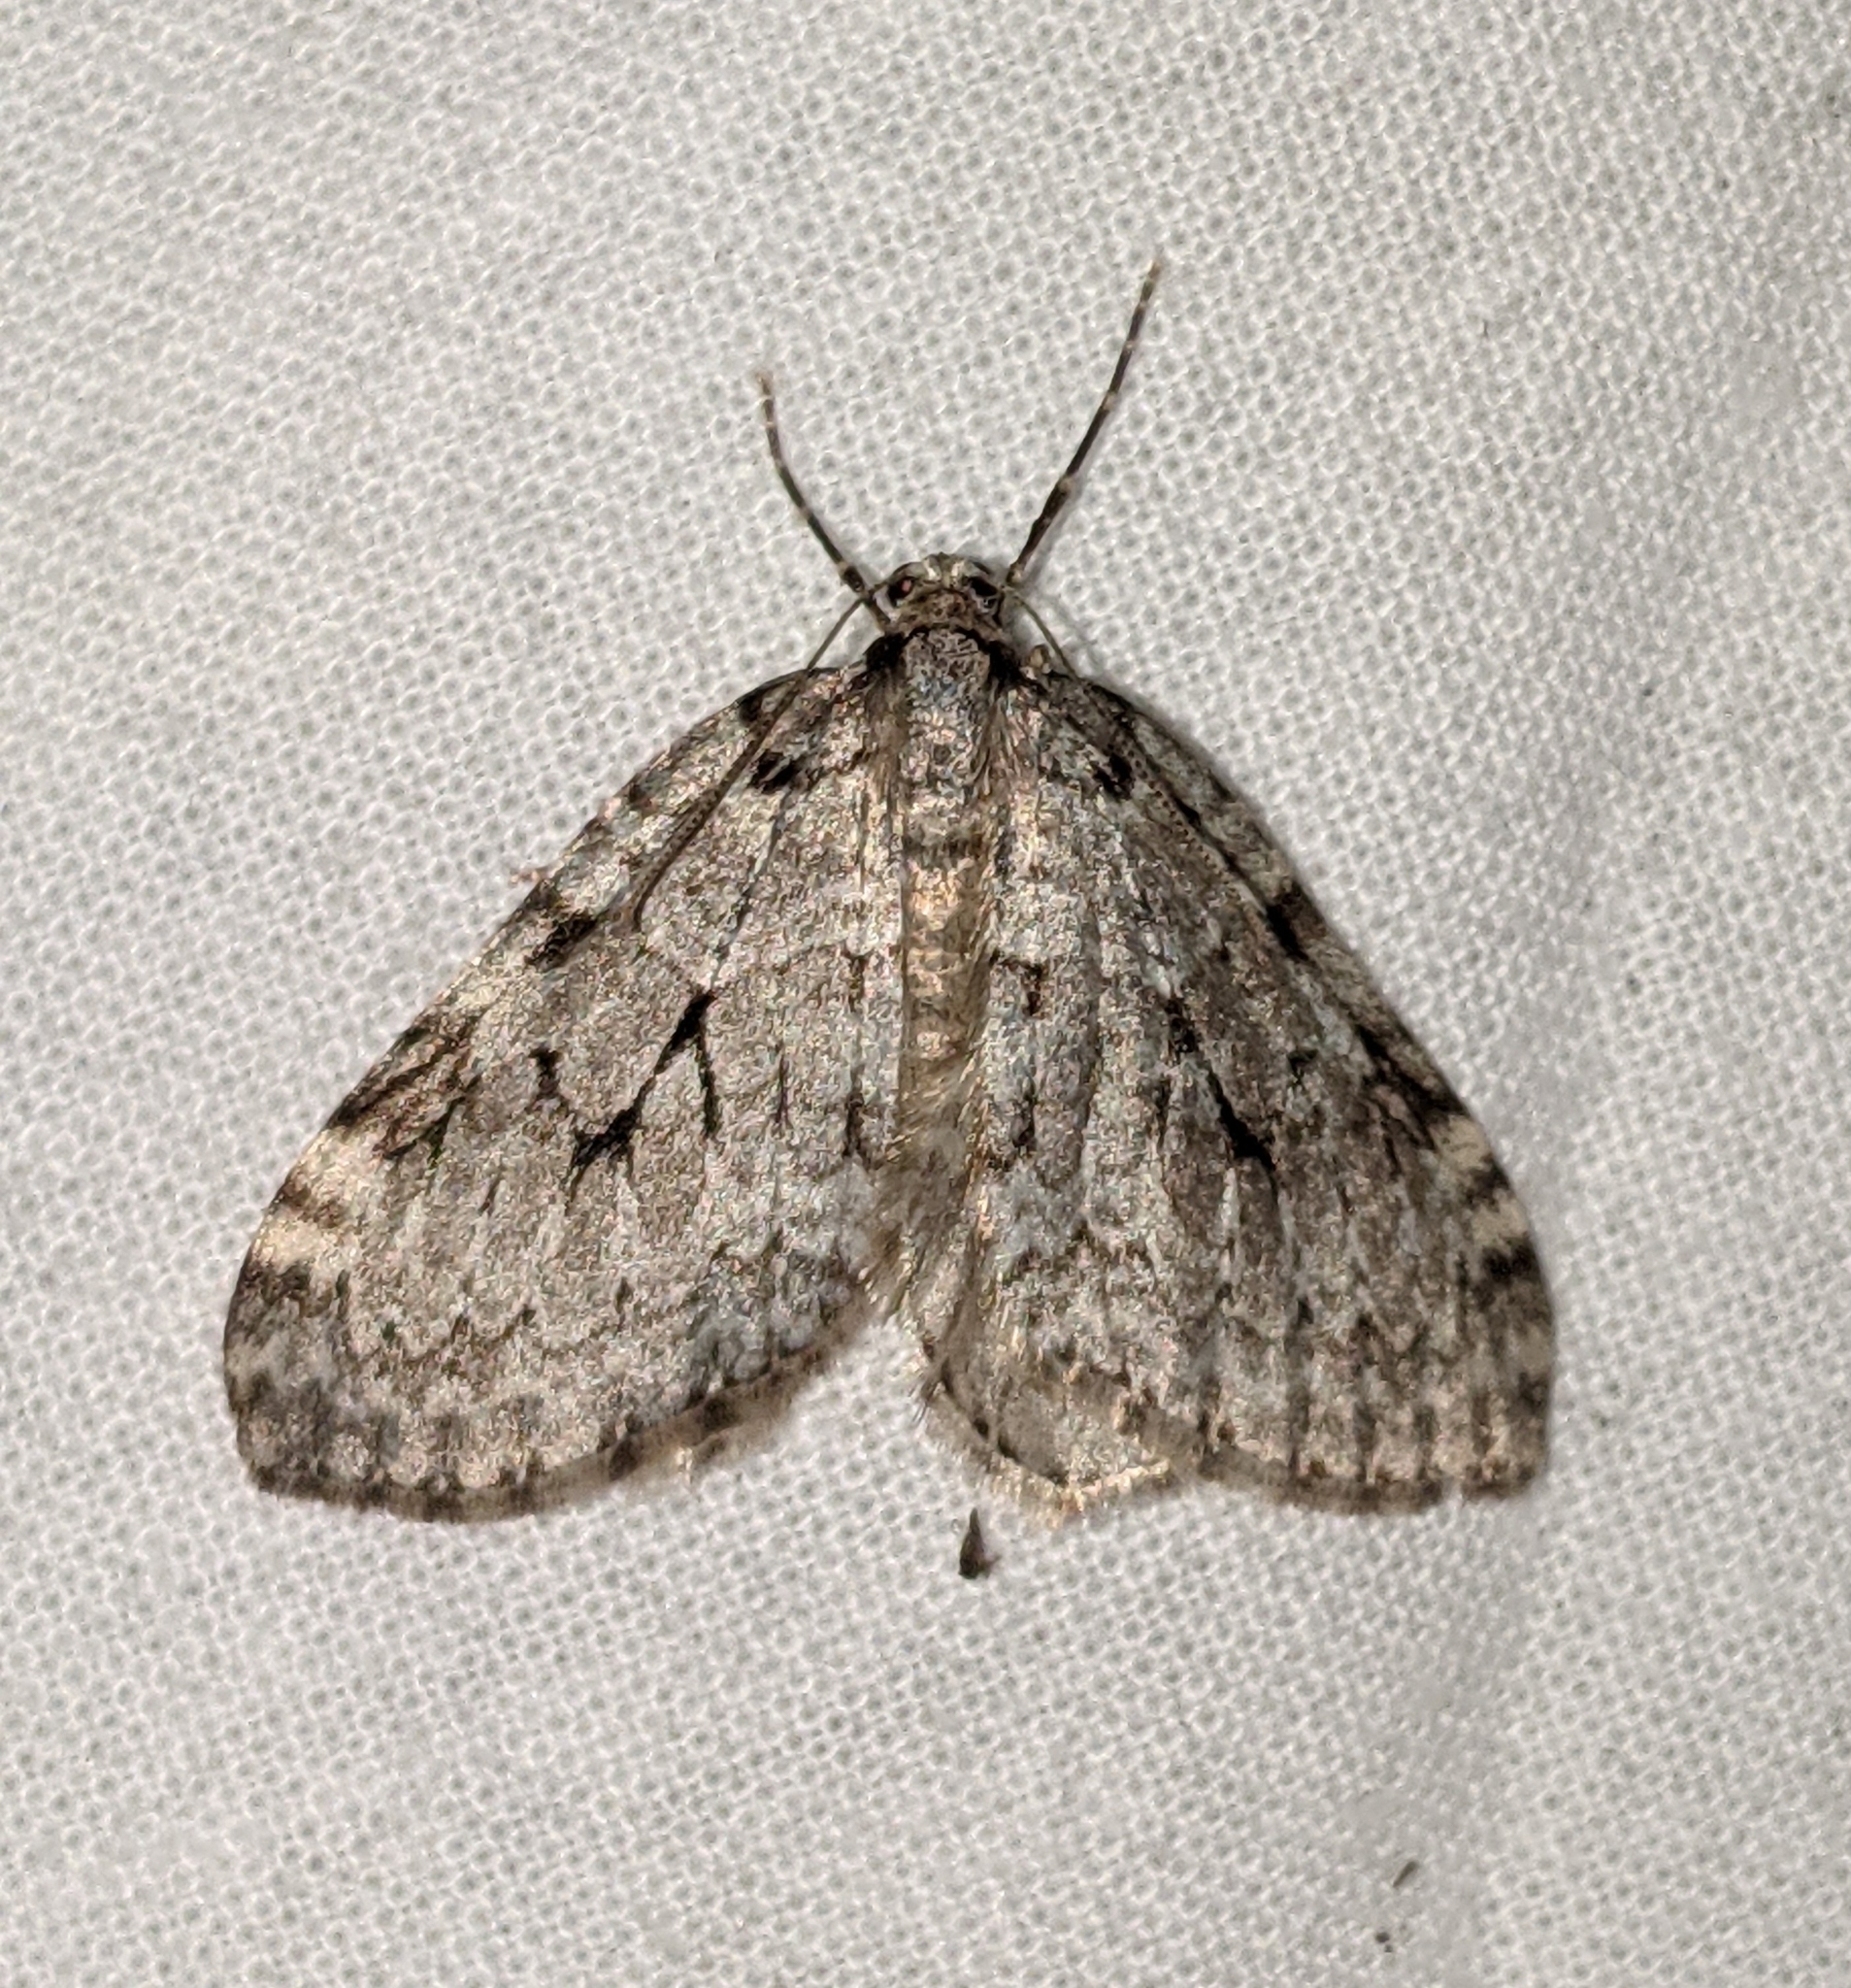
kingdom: Animalia
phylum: Arthropoda
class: Insecta
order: Lepidoptera
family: Geometridae
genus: Epirrita
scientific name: Epirrita autumnata
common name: Autumnal moth
